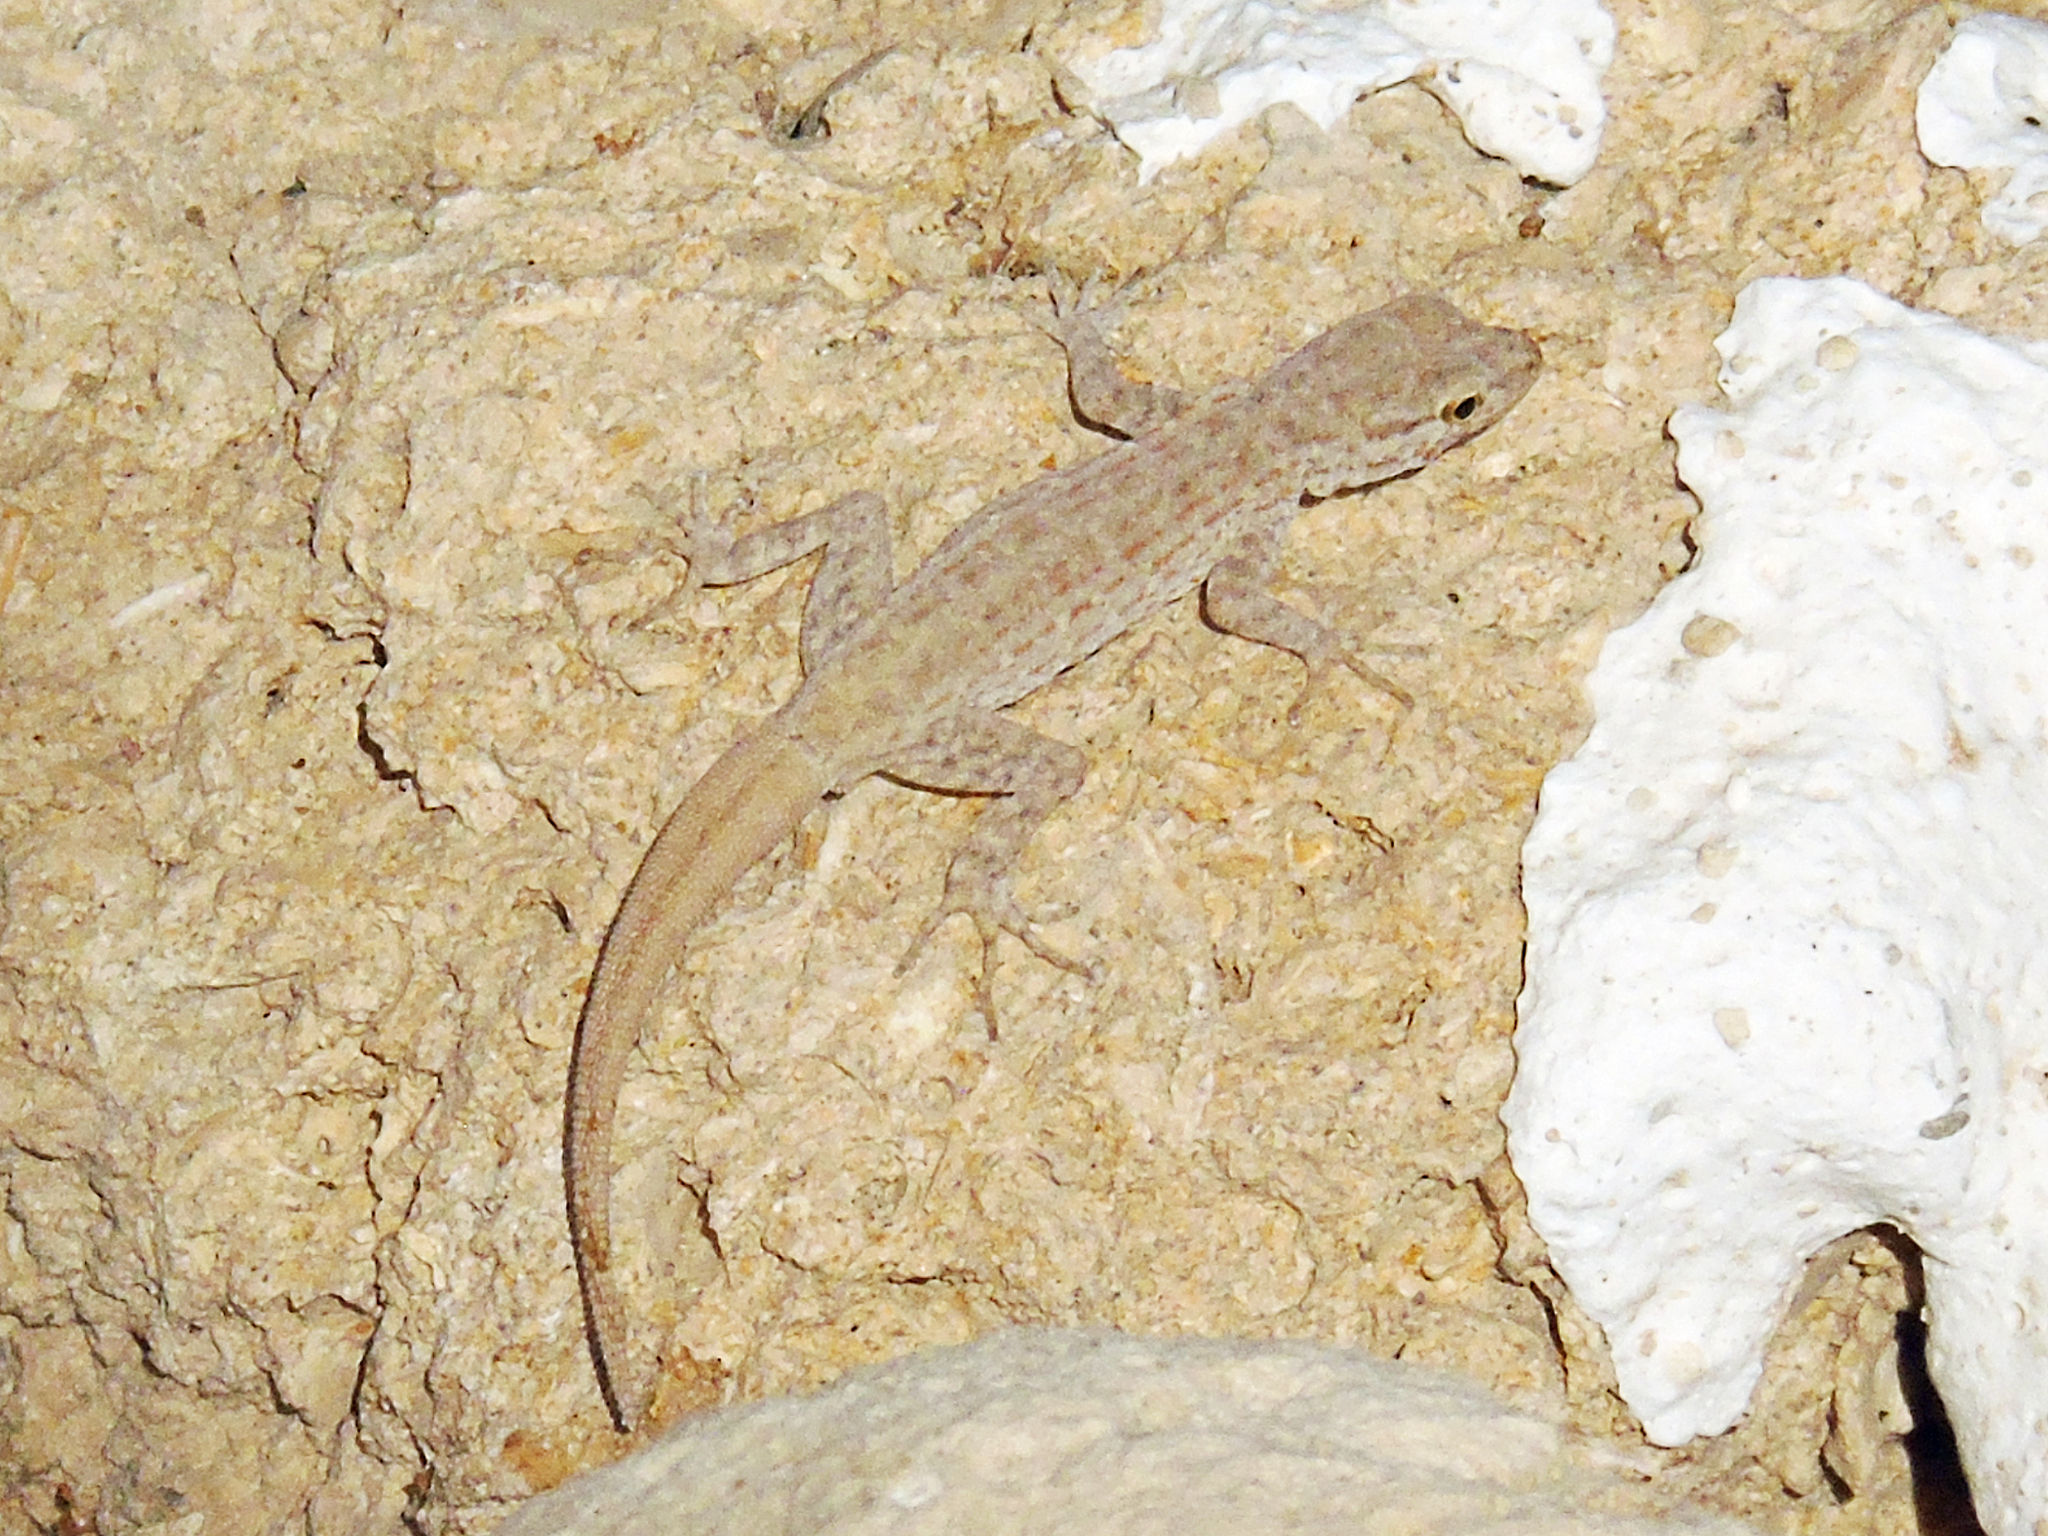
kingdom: Animalia
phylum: Chordata
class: Squamata
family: Sphaerodactylidae
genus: Pristurus
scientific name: Pristurus rupestris
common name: Blanford’s semaphore gecko
